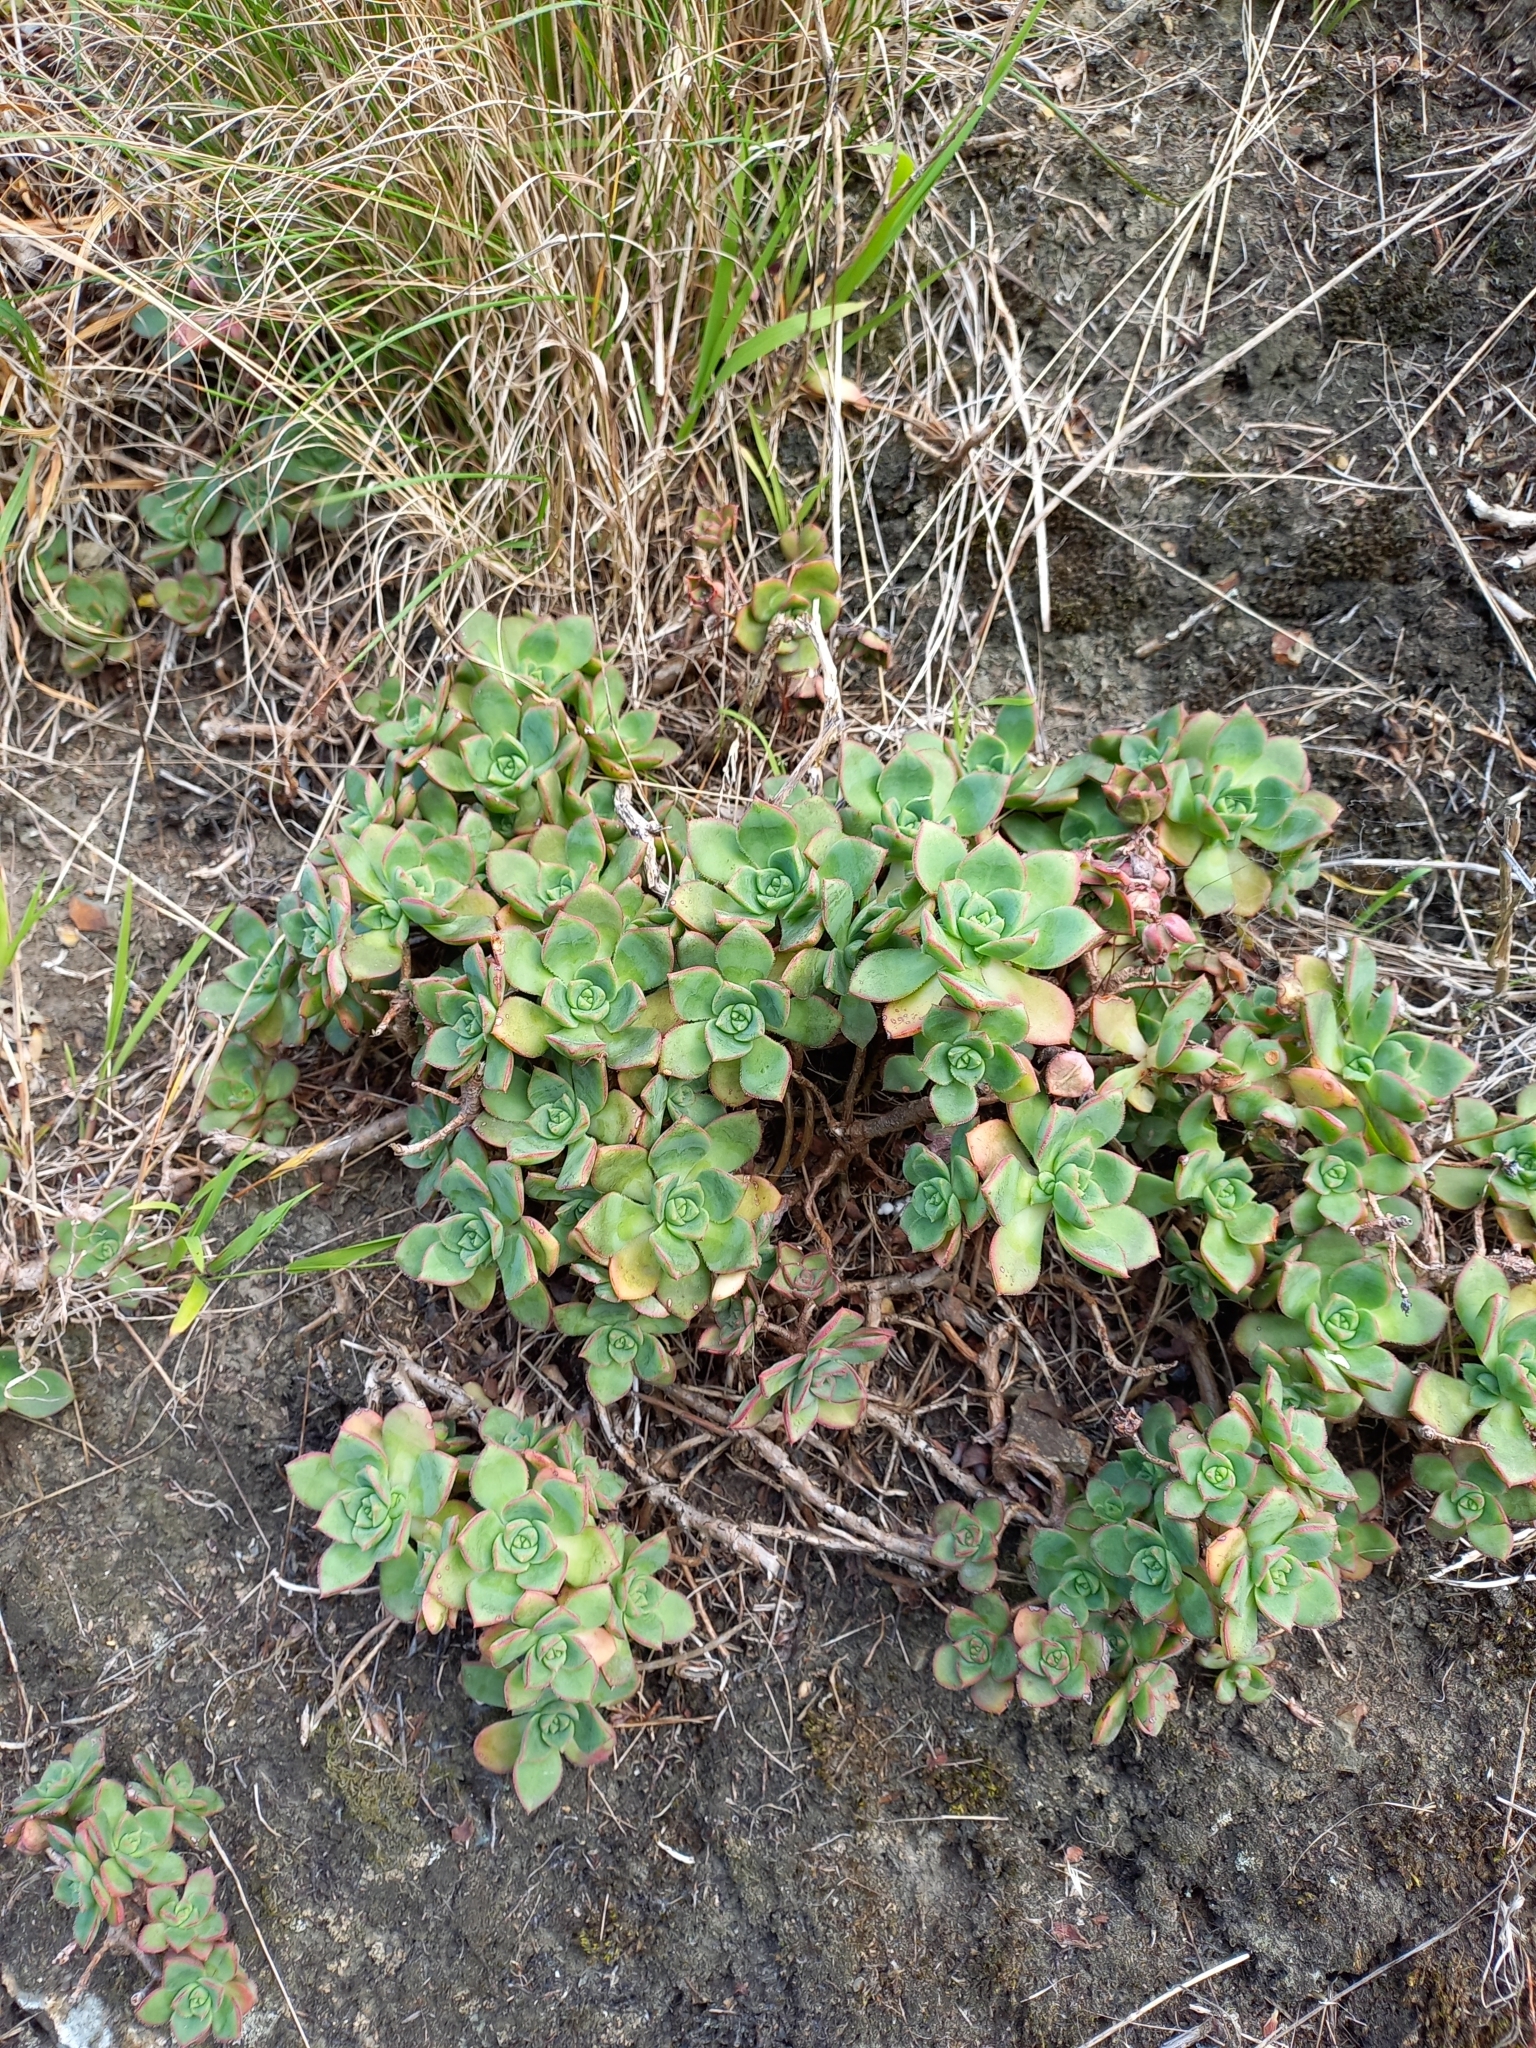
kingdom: Plantae
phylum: Tracheophyta
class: Magnoliopsida
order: Saxifragales
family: Crassulaceae
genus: Aeonium
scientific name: Aeonium haworthii
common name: Haworth's aeonium
